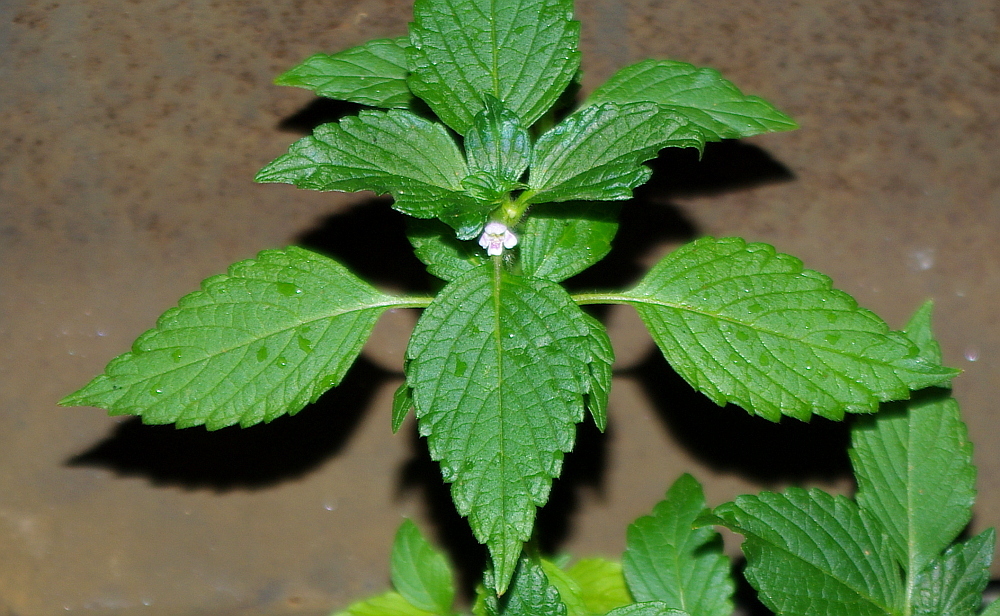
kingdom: Plantae
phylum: Tracheophyta
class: Magnoliopsida
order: Lamiales
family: Lamiaceae
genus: Galeopsis
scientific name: Galeopsis tetrahit
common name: Common hemp-nettle
